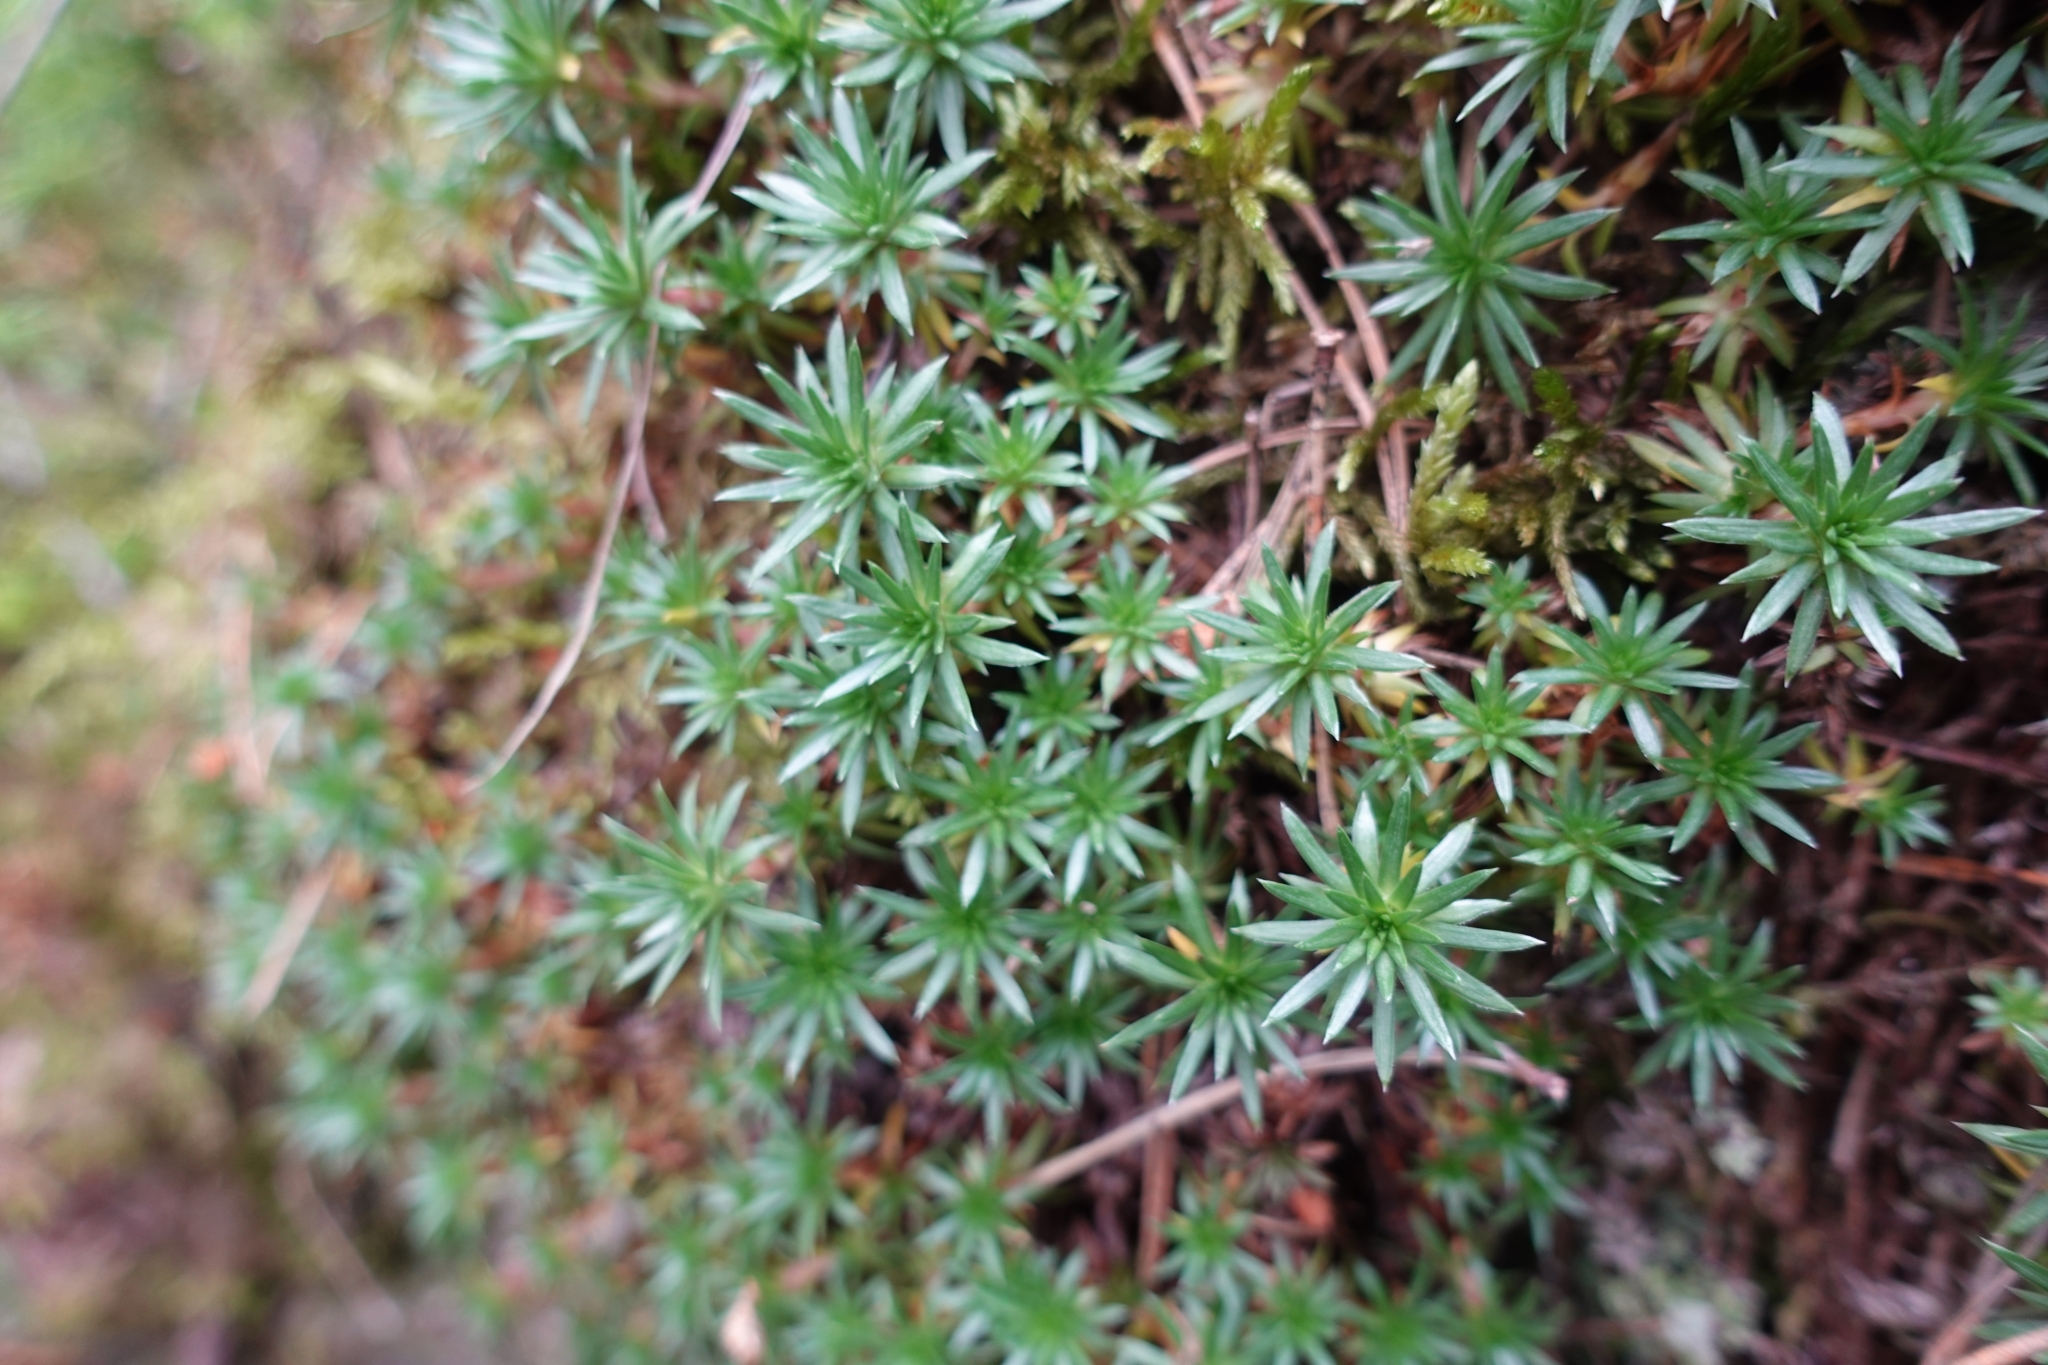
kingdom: Plantae
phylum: Tracheophyta
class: Magnoliopsida
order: Saxifragales
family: Saxifragaceae
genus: Saxifraga
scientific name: Saxifraga scleropoda
